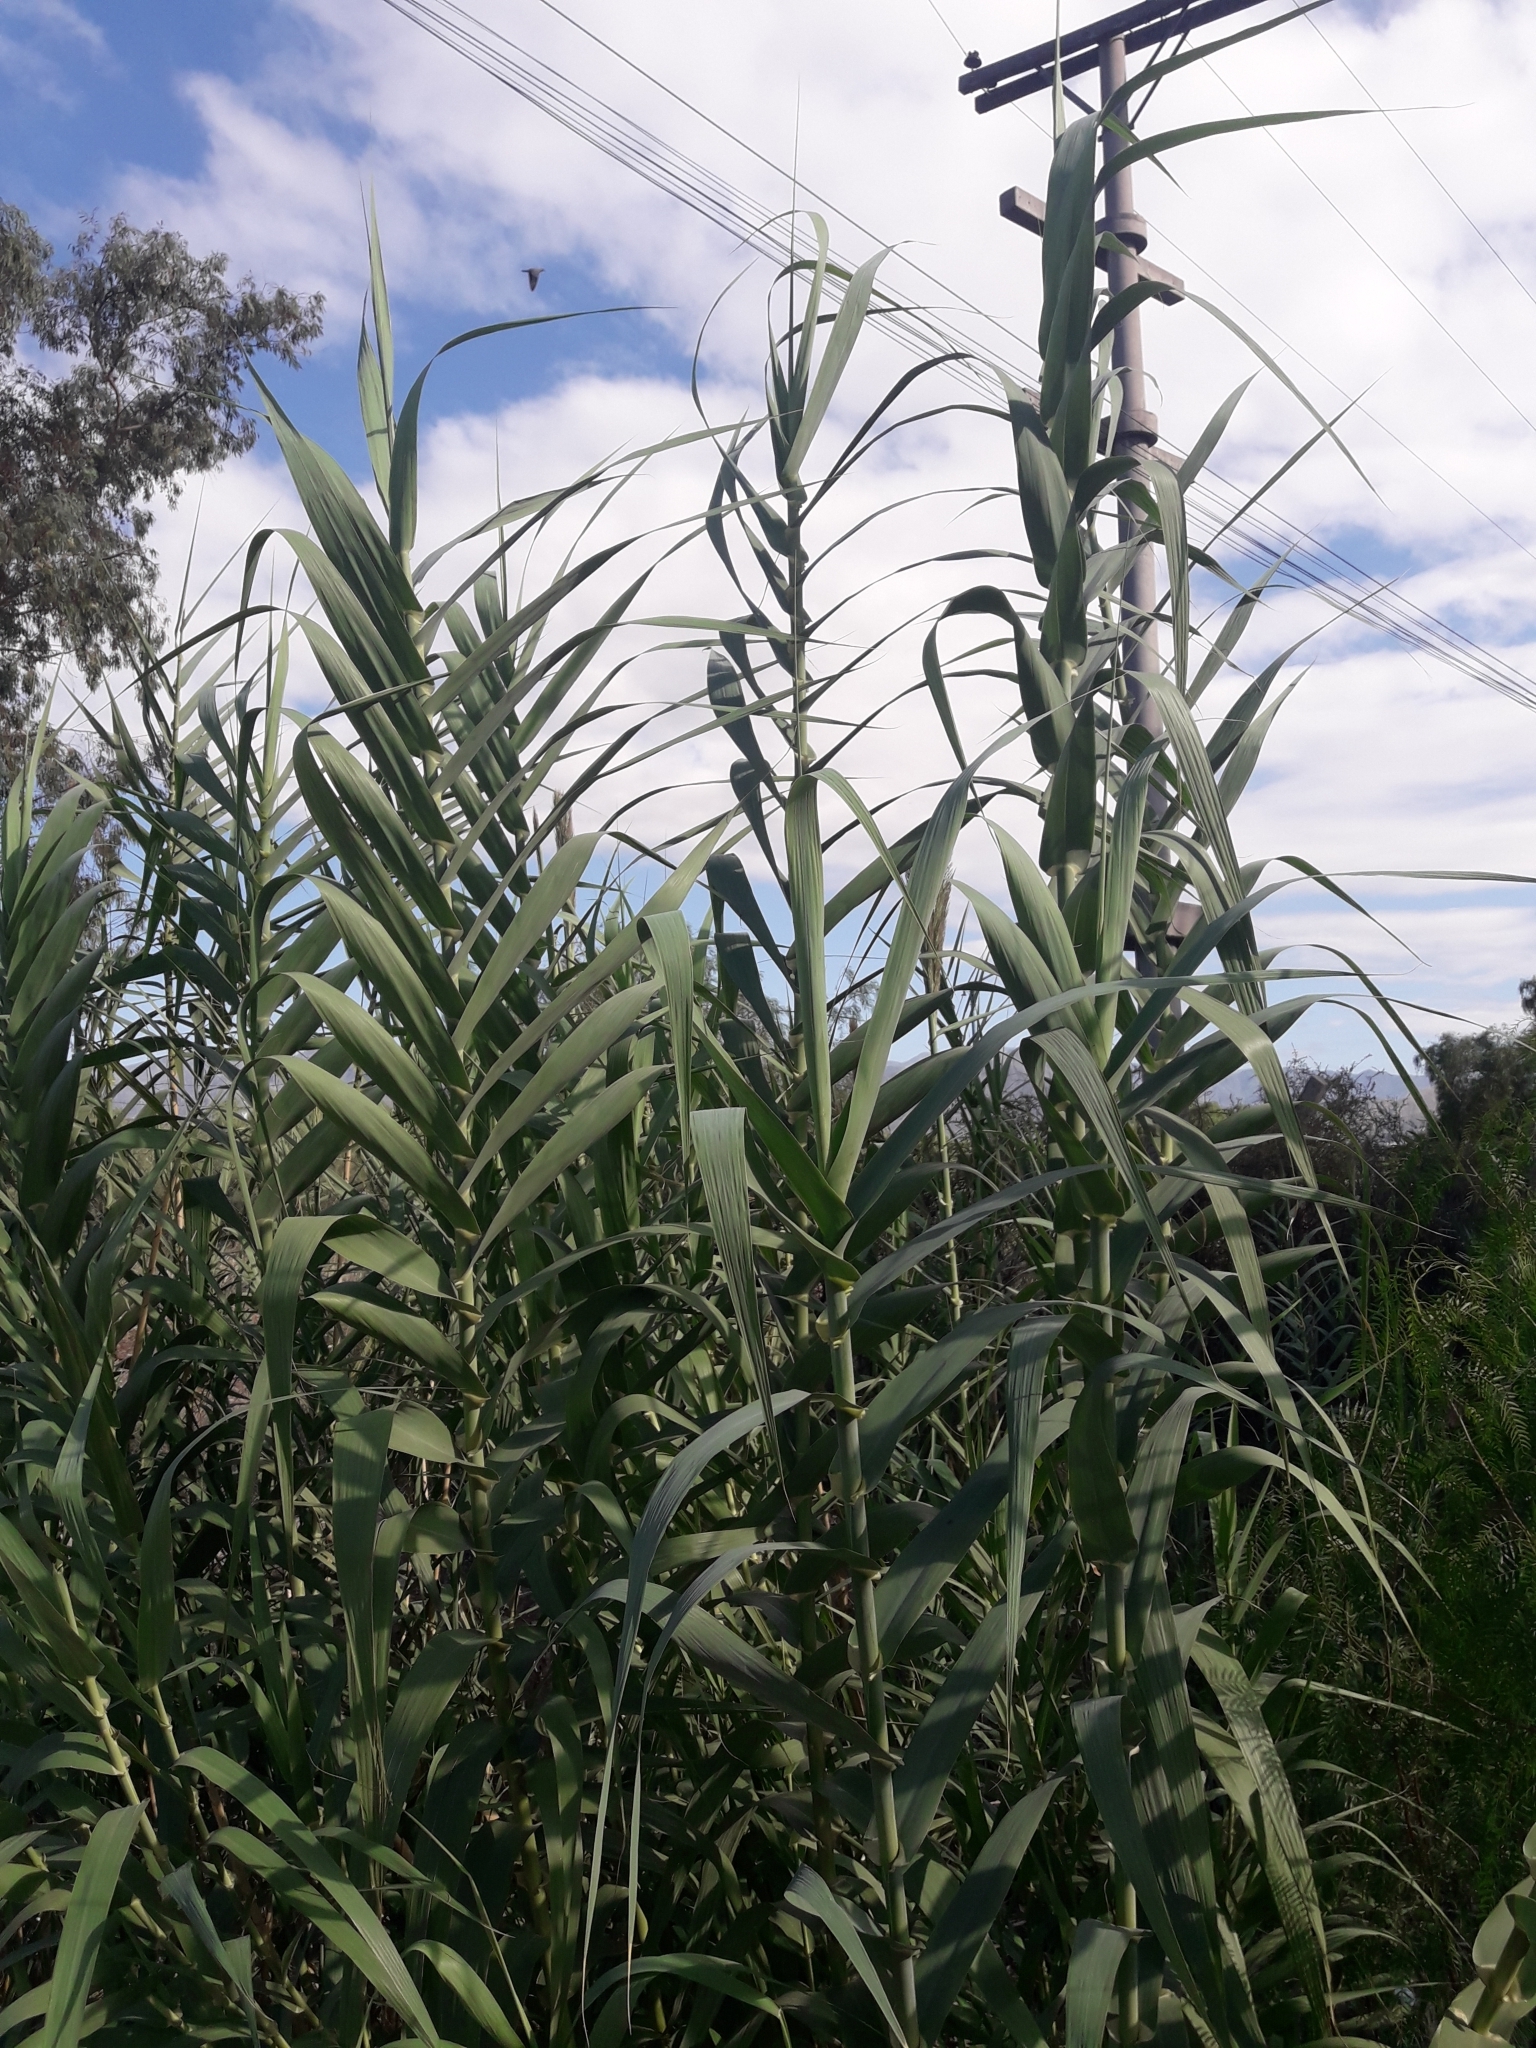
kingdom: Plantae
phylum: Tracheophyta
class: Liliopsida
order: Poales
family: Poaceae
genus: Arundo
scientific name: Arundo donax
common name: Giant reed
